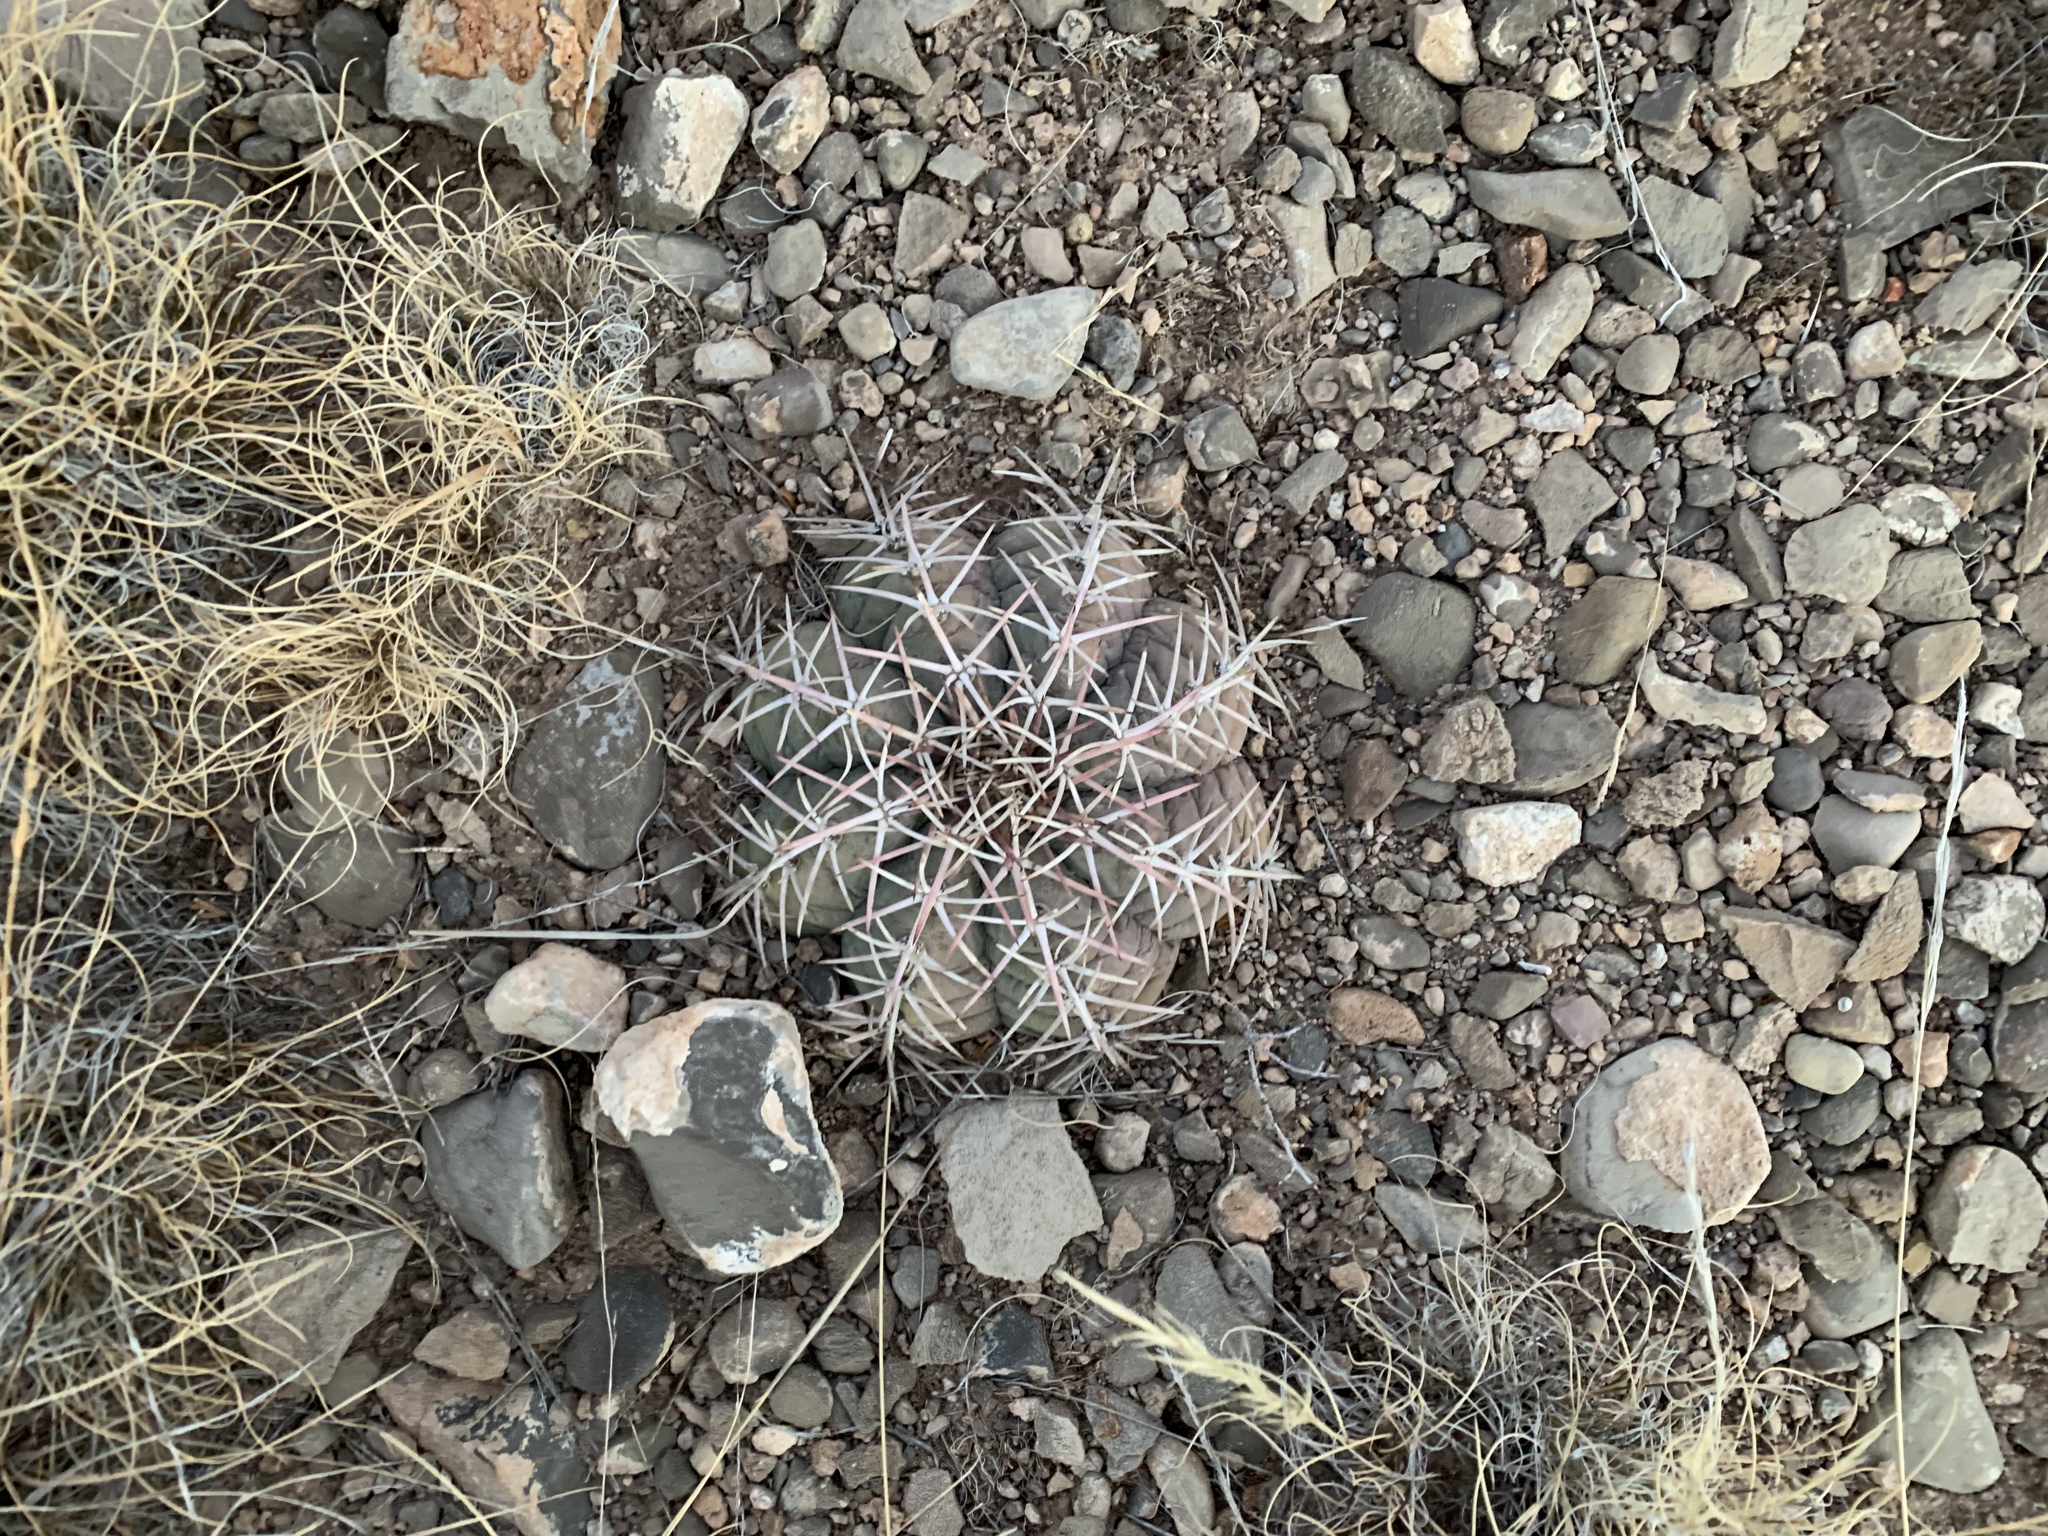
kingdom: Plantae
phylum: Tracheophyta
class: Magnoliopsida
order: Caryophyllales
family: Cactaceae
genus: Echinocactus
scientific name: Echinocactus horizonthalonius
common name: Devilshead
